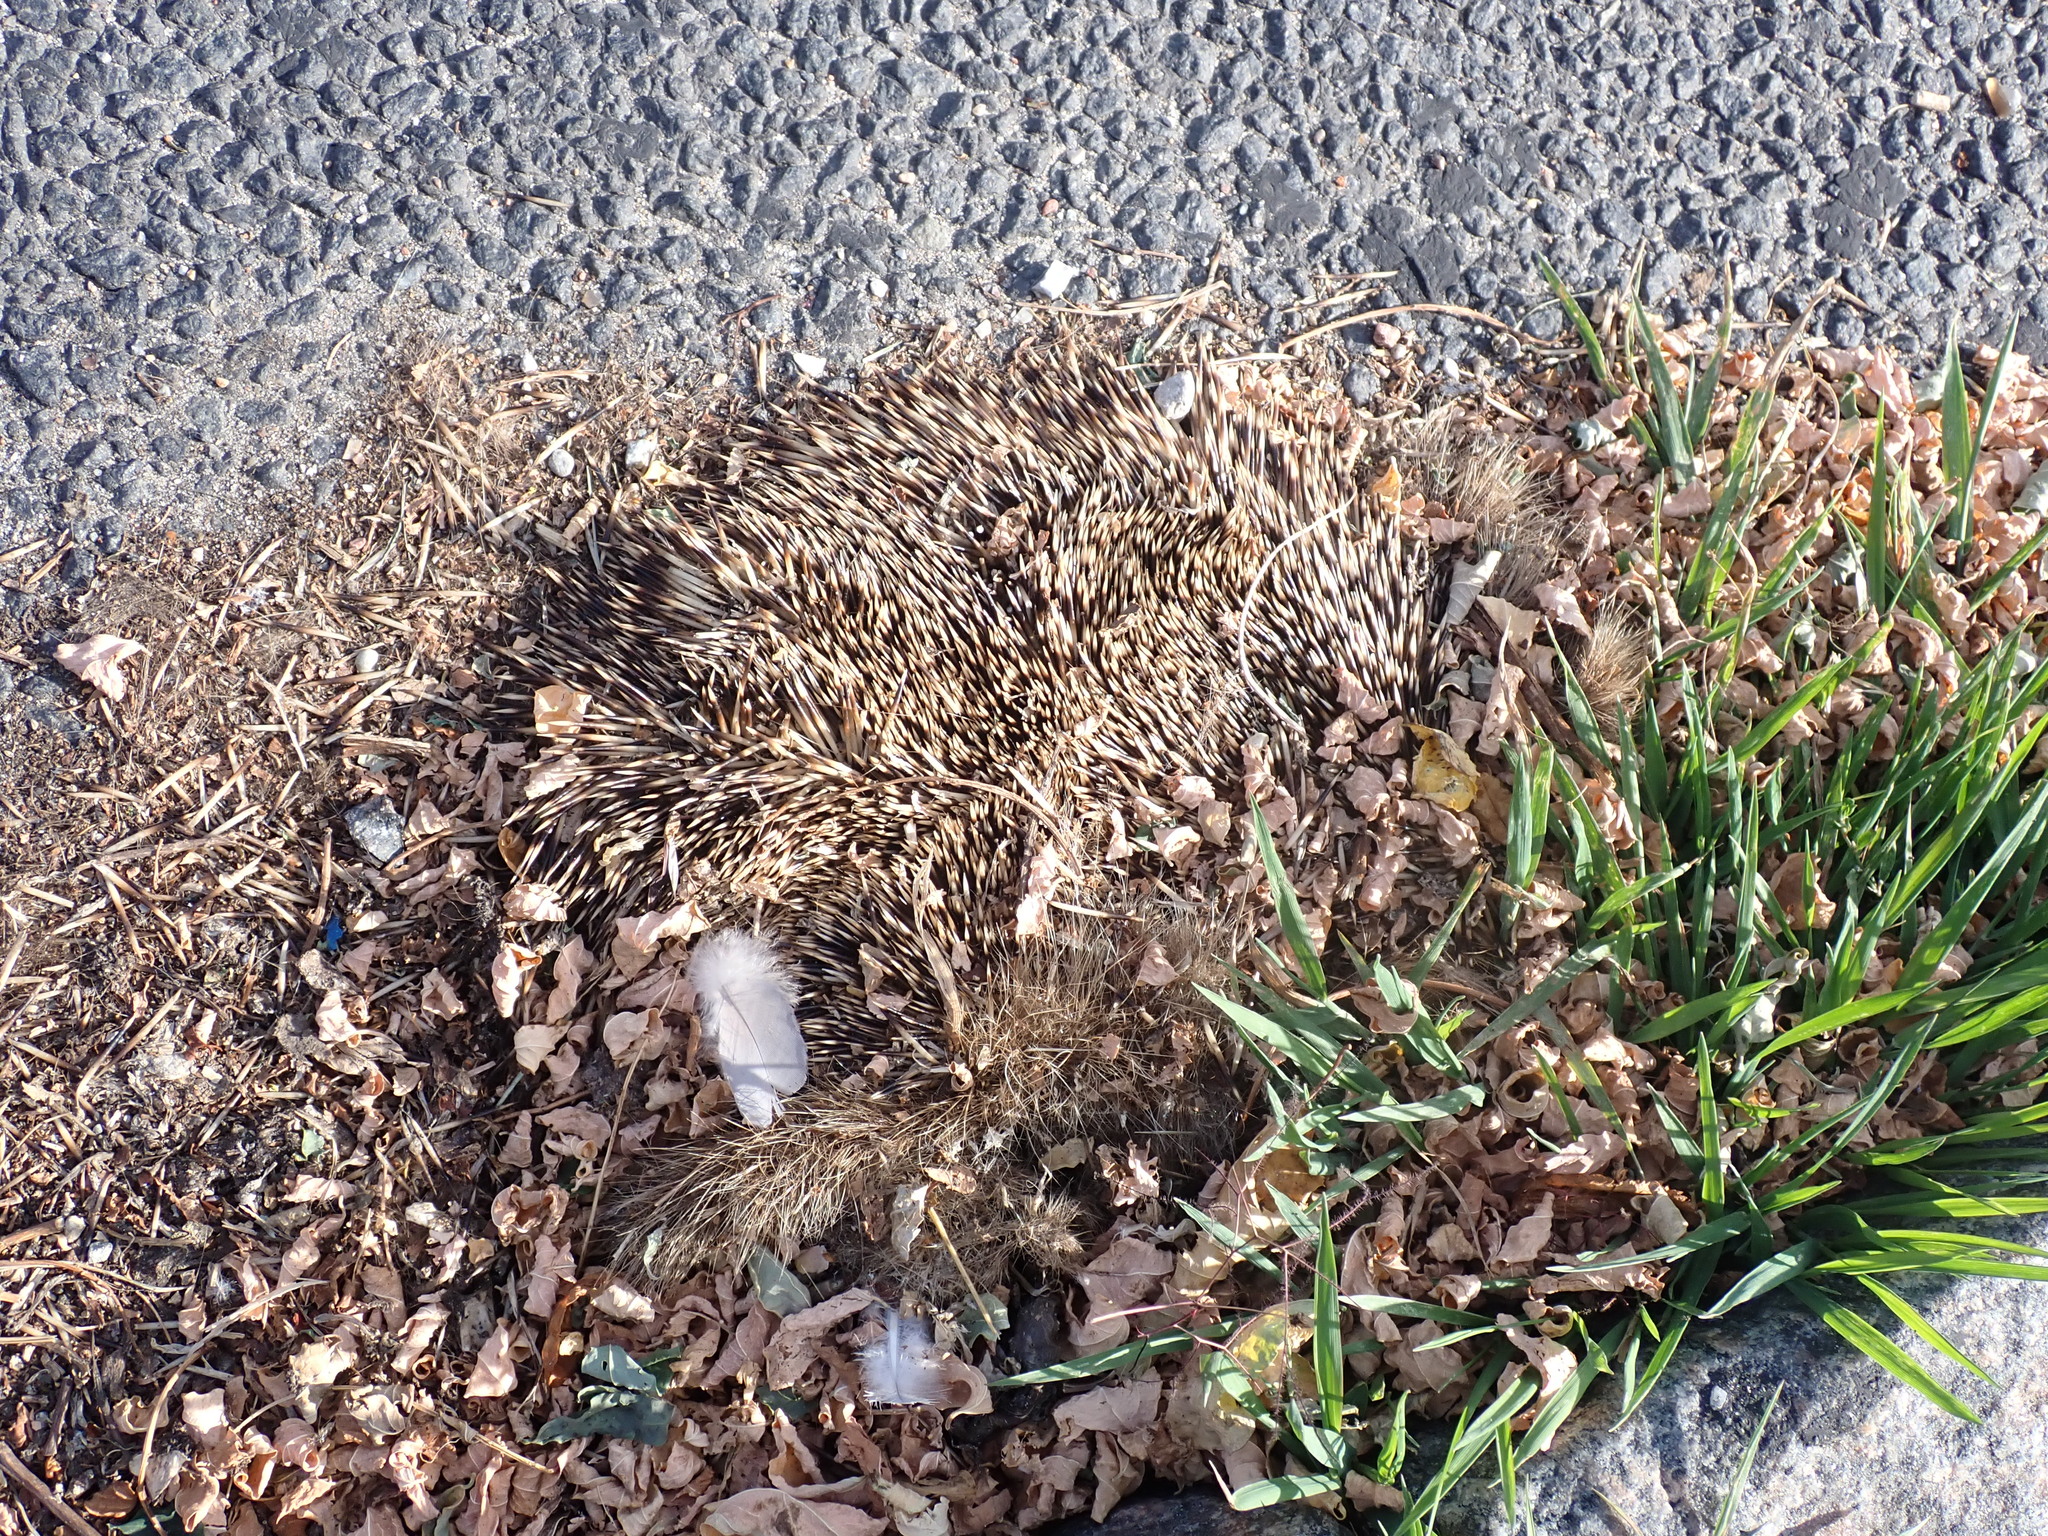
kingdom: Animalia
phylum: Chordata
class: Mammalia
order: Erinaceomorpha
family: Erinaceidae
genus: Erinaceus
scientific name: Erinaceus europaeus
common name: West european hedgehog
